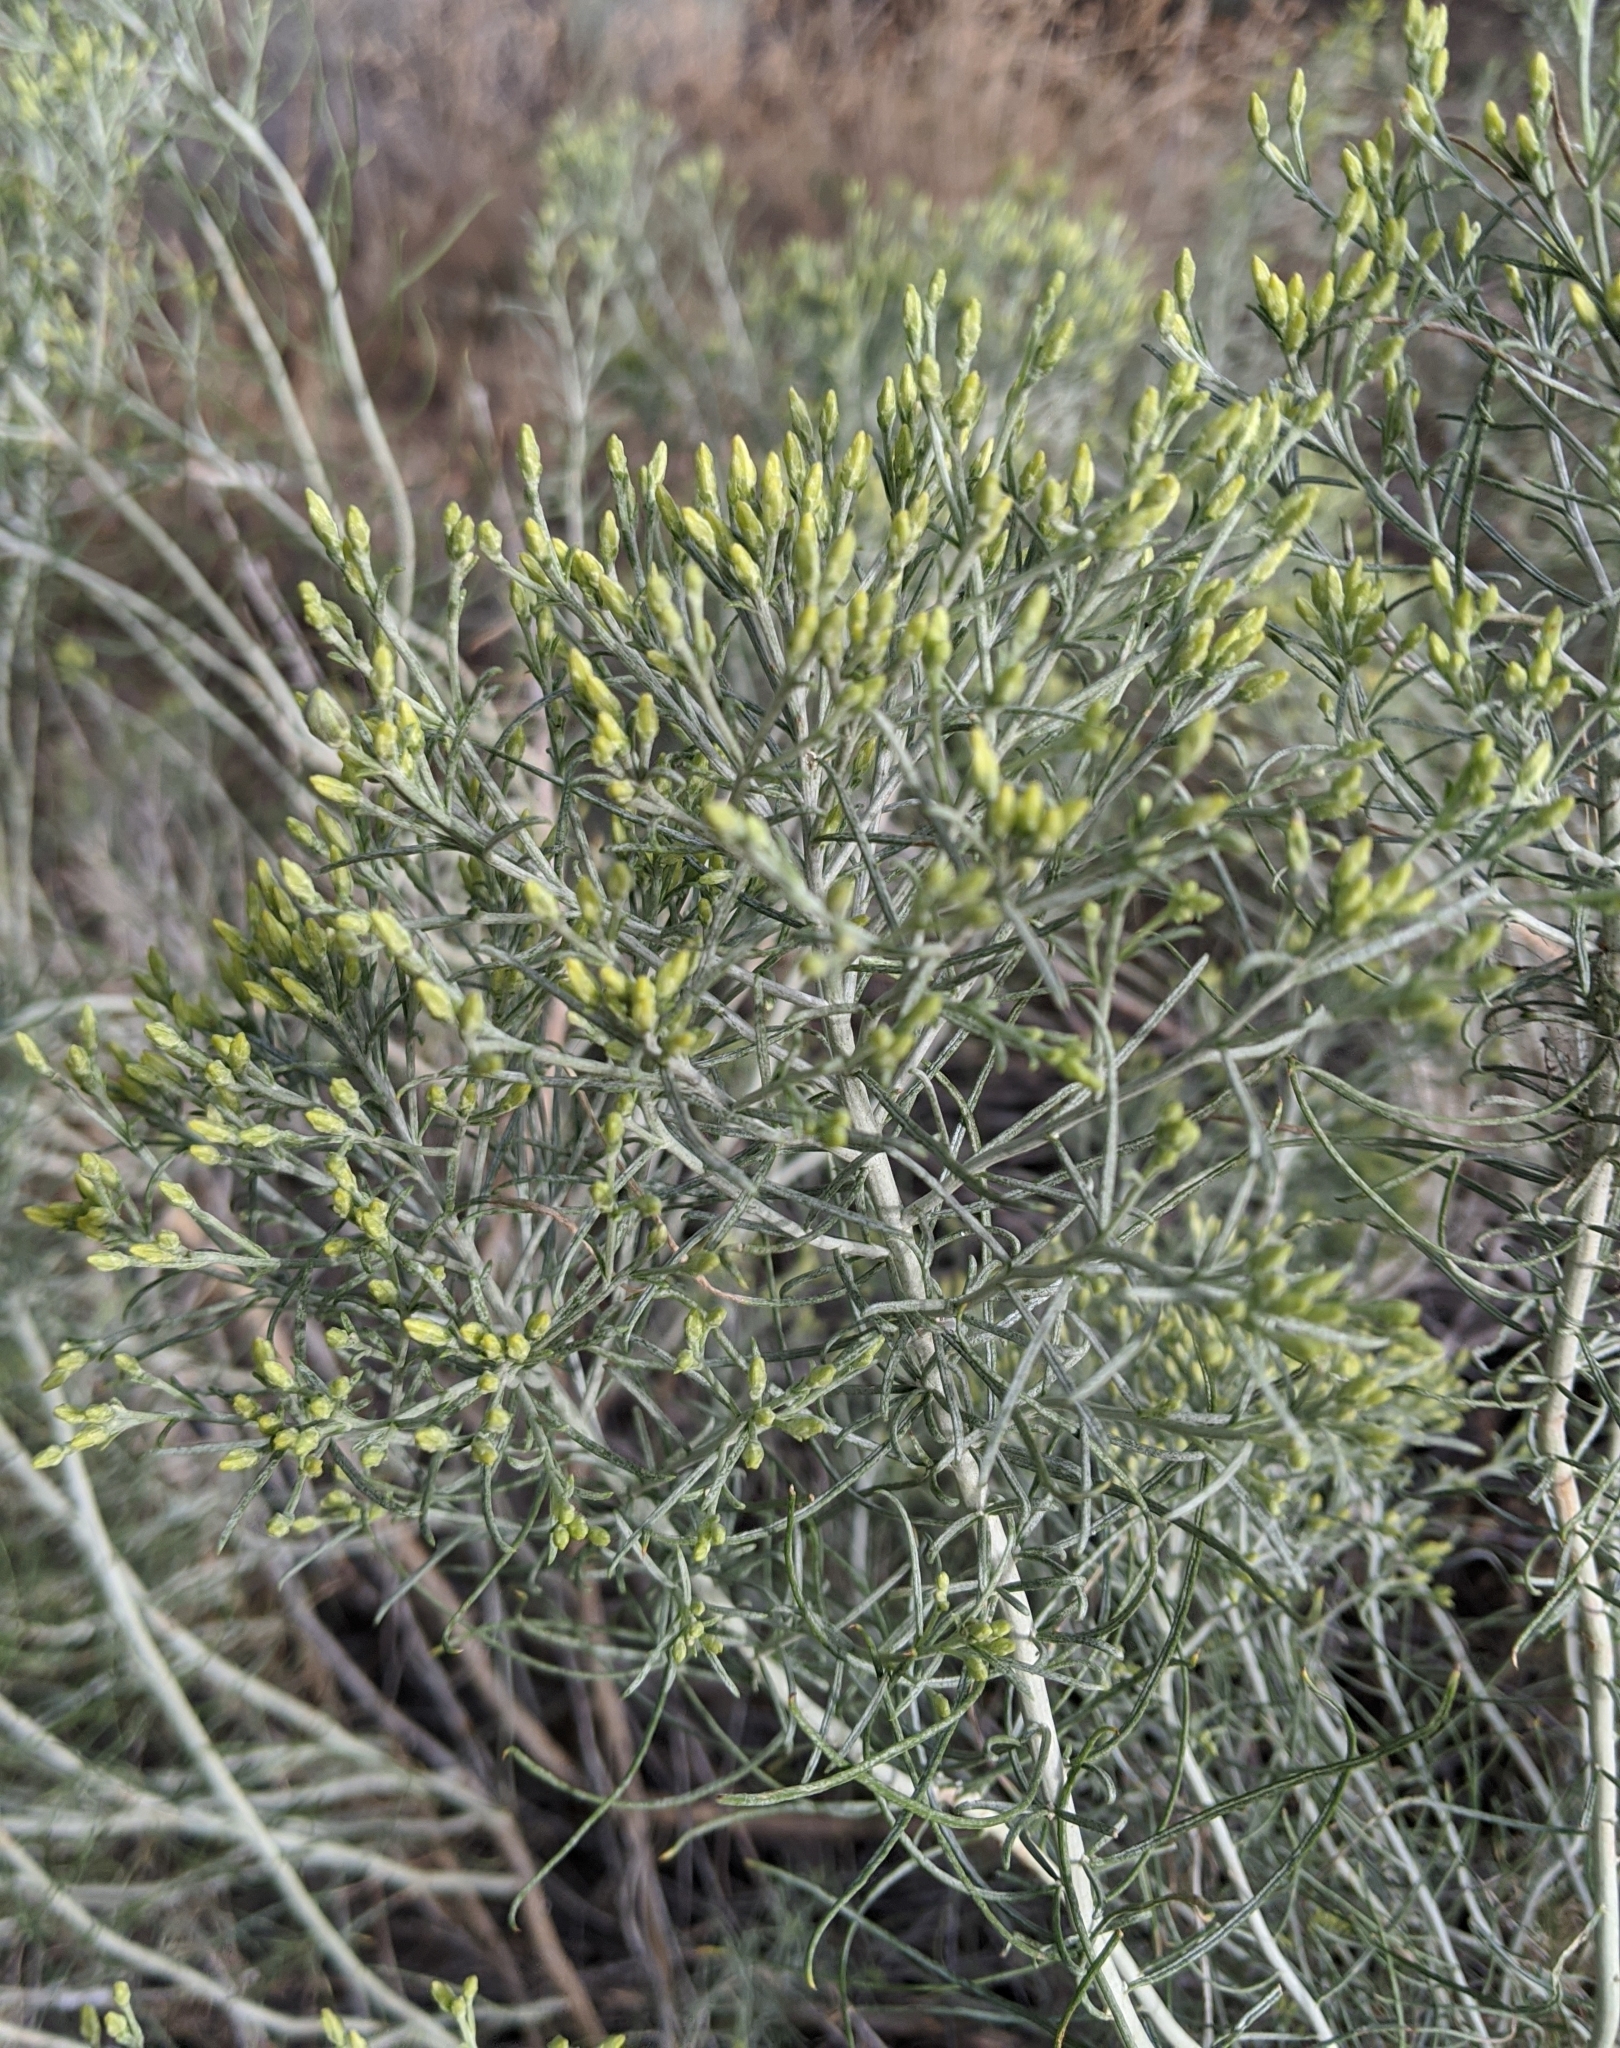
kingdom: Plantae
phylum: Tracheophyta
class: Magnoliopsida
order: Asterales
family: Asteraceae
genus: Ericameria
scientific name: Ericameria nauseosa
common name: Rubber rabbitbrush
